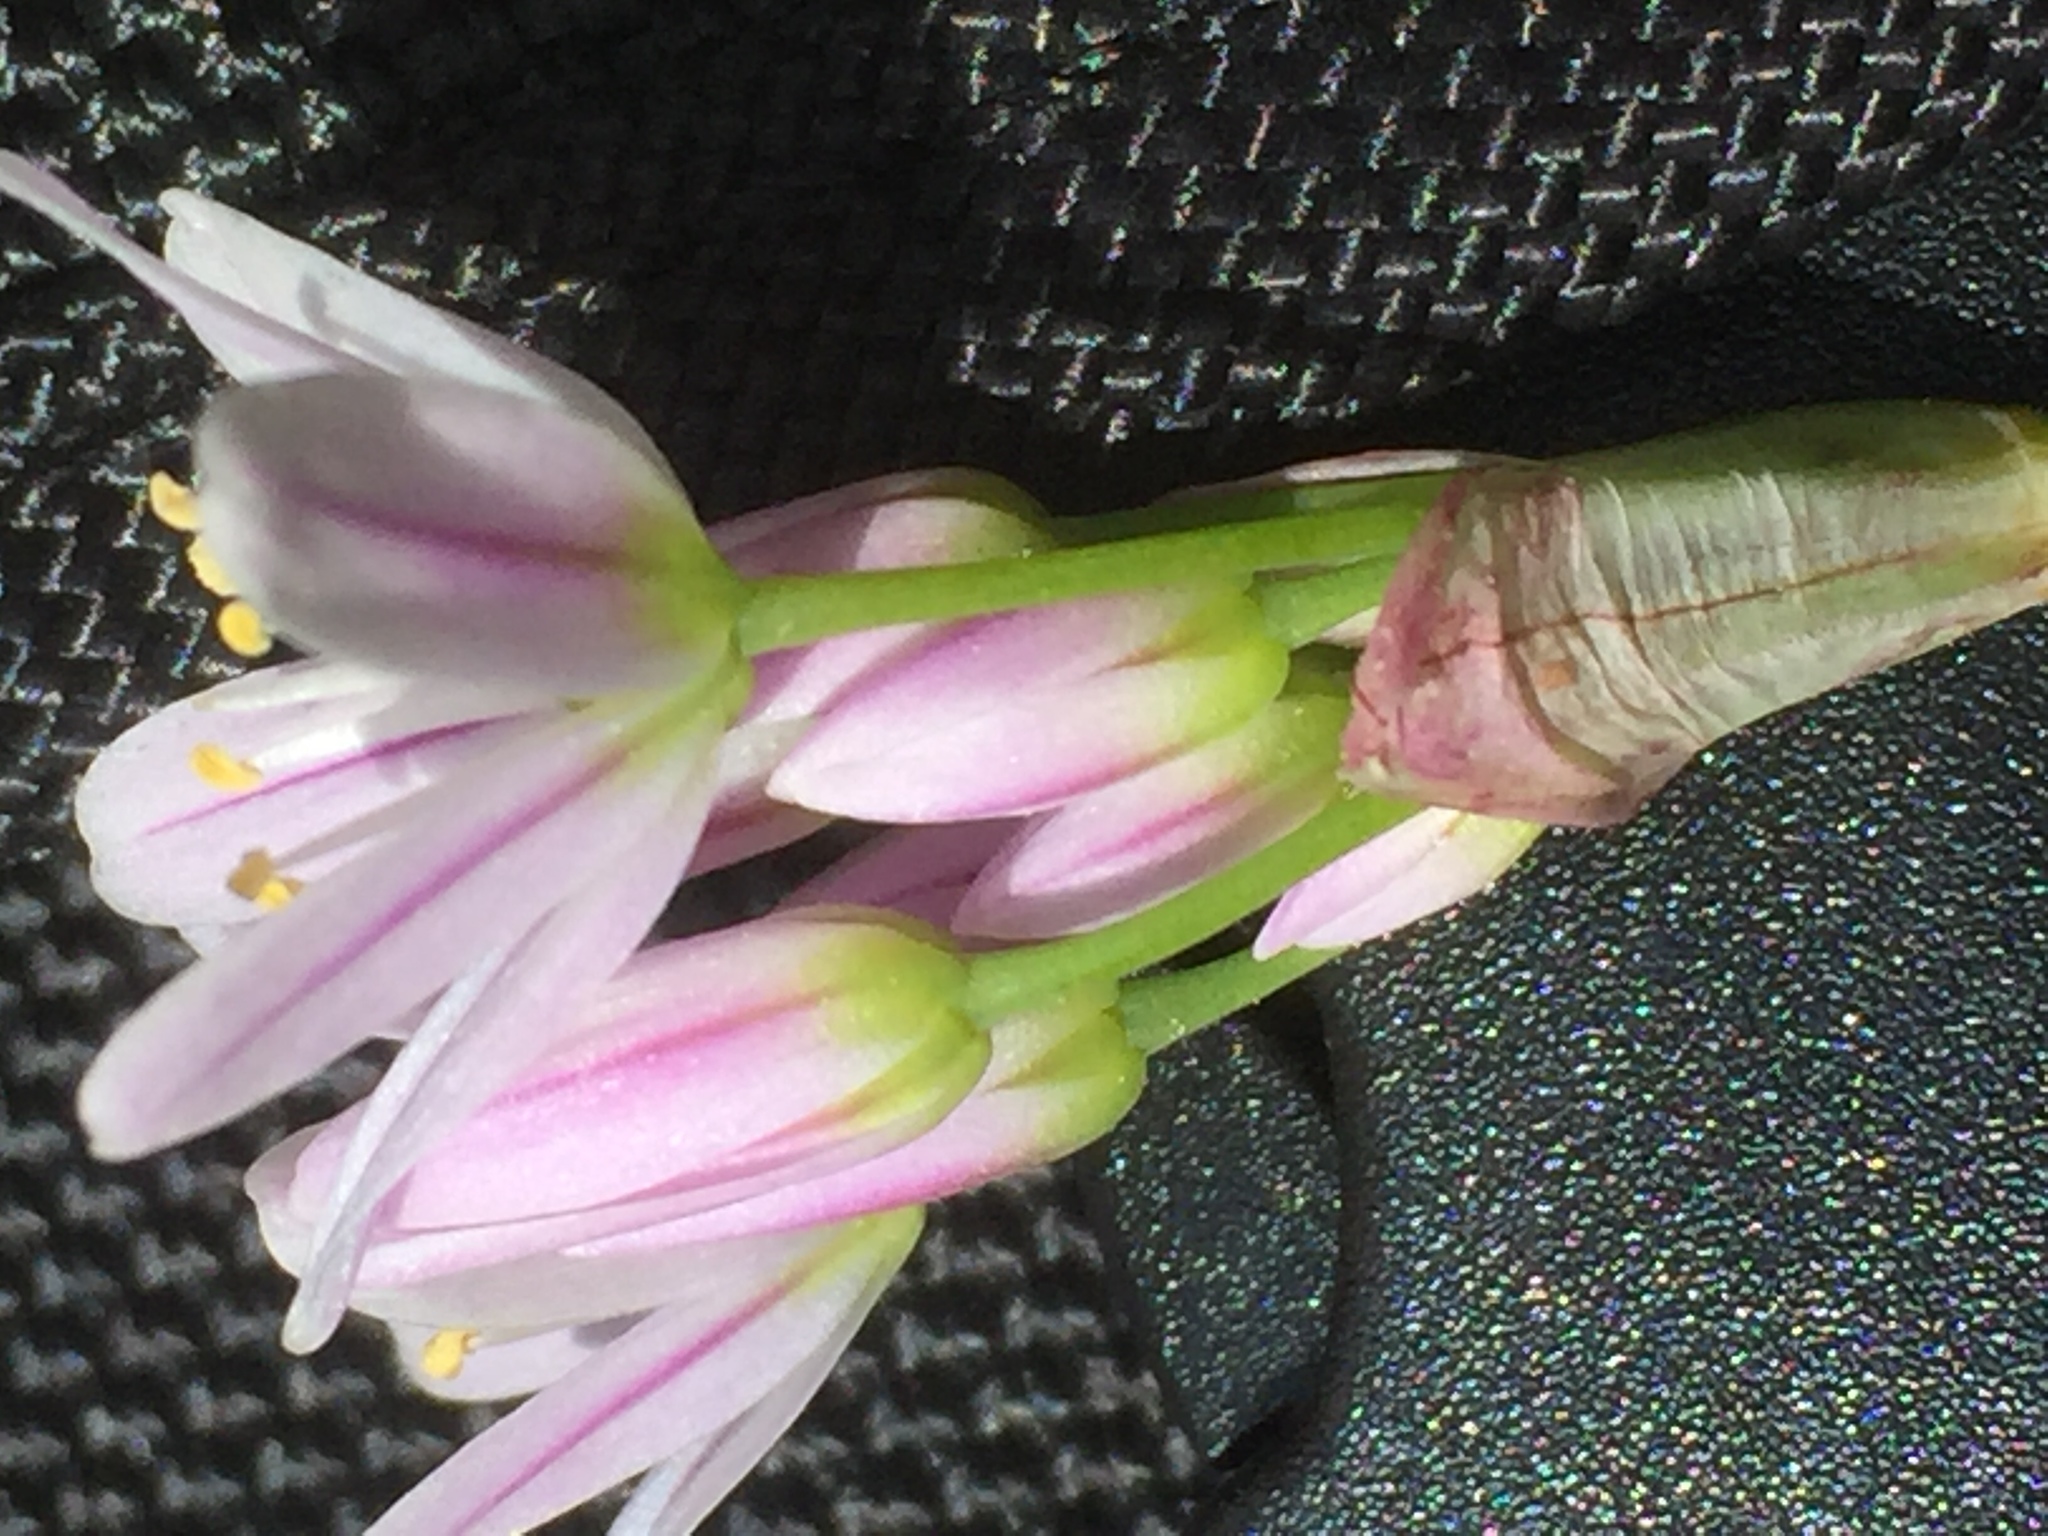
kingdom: Plantae
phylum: Tracheophyta
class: Liliopsida
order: Asparagales
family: Amaryllidaceae
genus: Allium
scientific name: Allium roseum
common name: Rosy garlic
